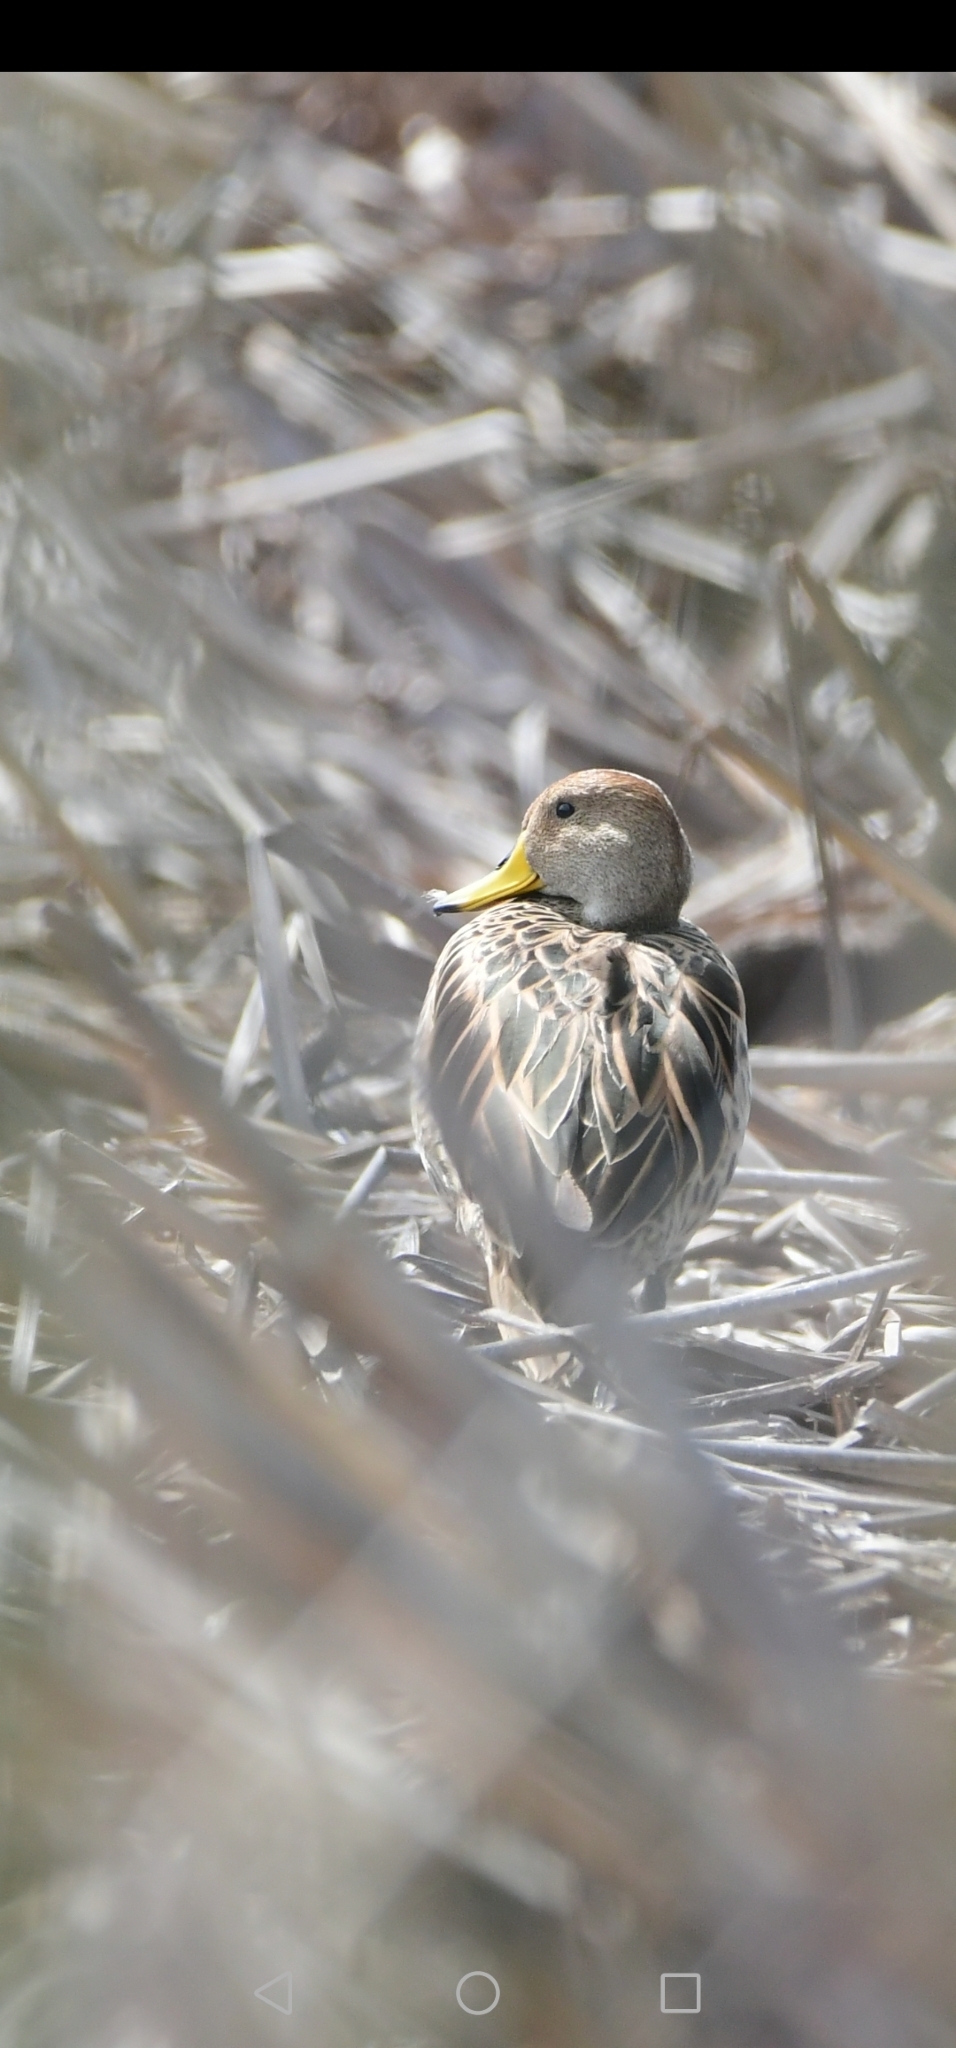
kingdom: Animalia
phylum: Chordata
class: Aves
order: Anseriformes
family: Anatidae
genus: Anas
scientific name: Anas georgica
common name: Yellow-billed pintail
